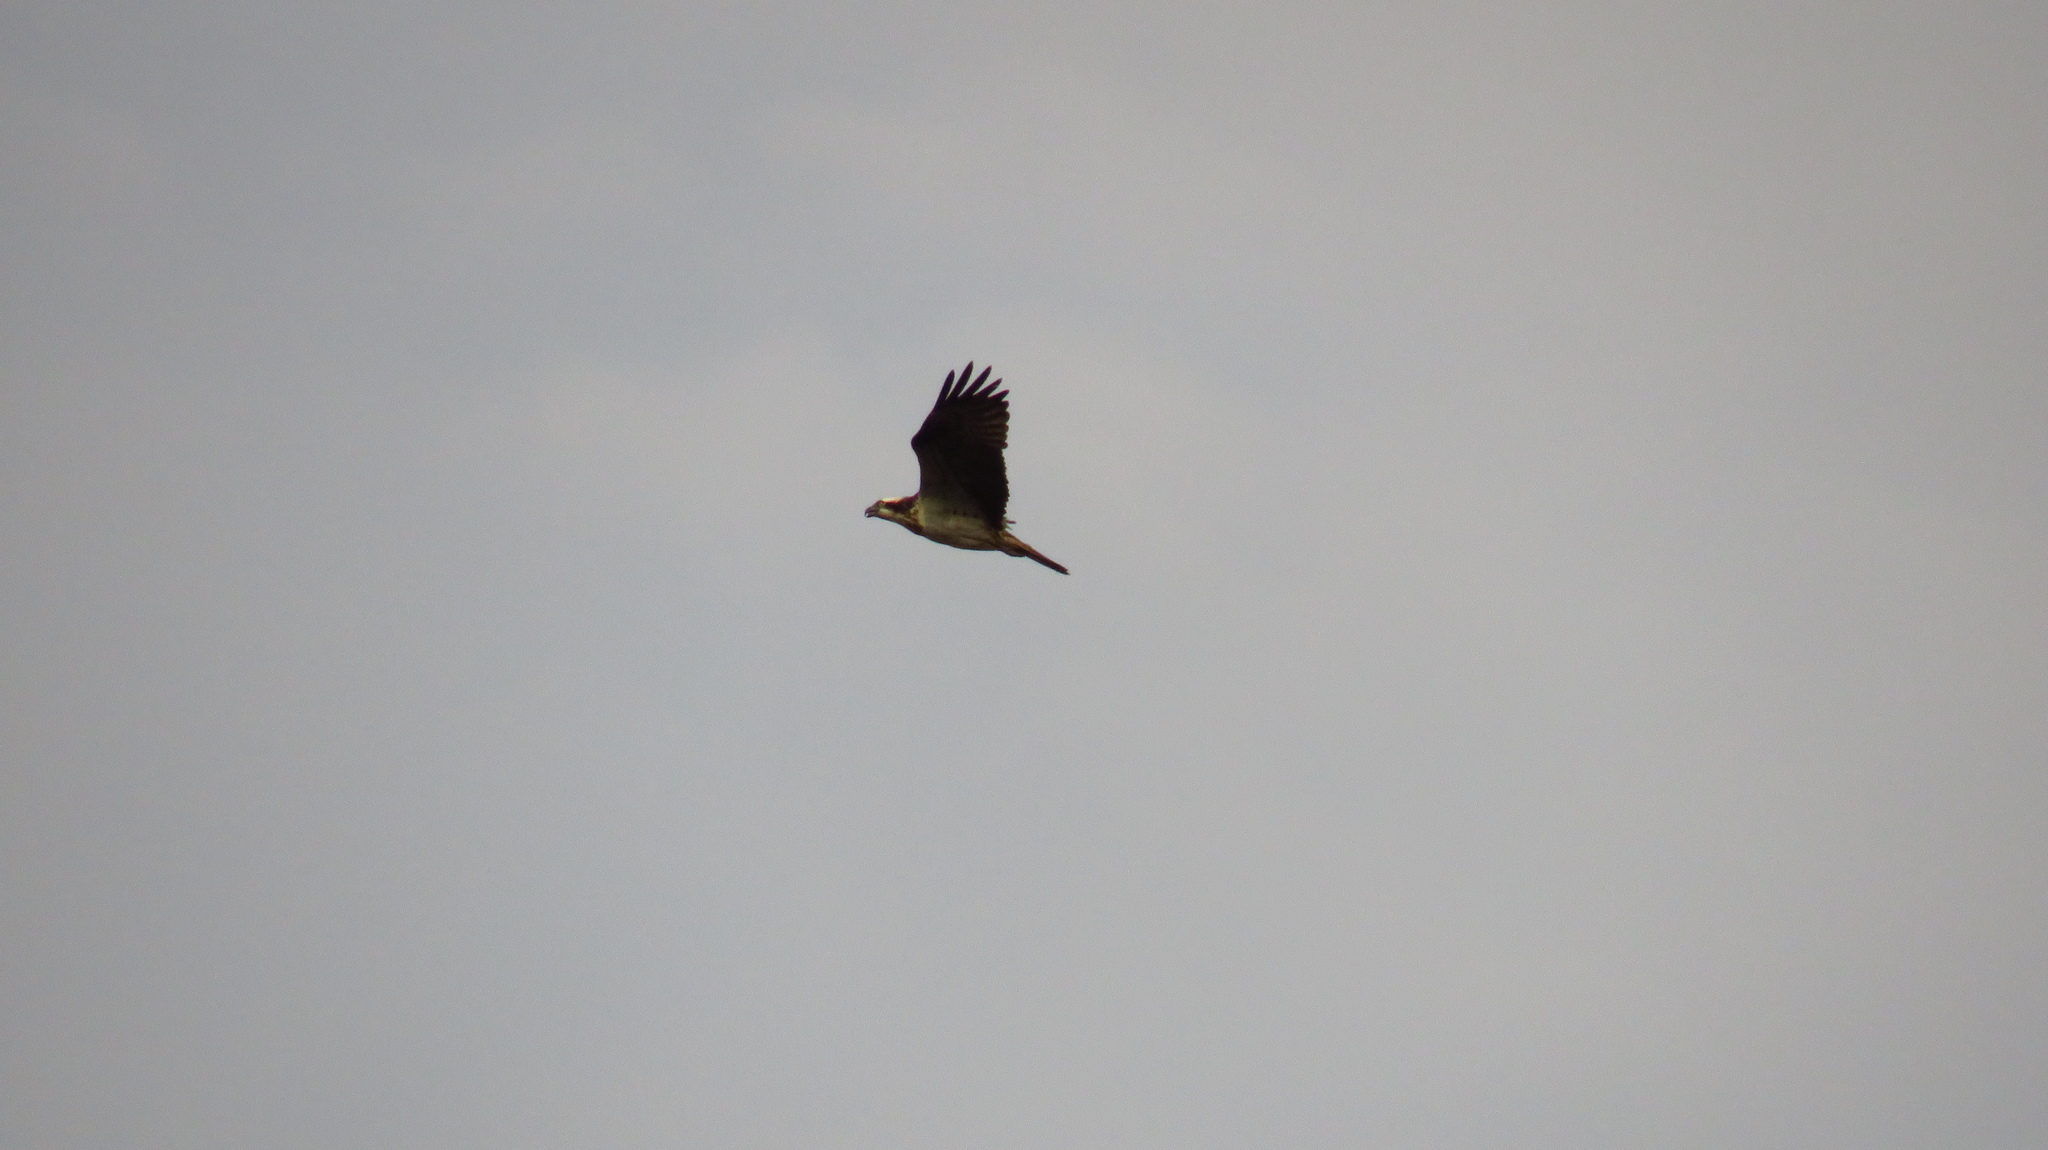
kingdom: Animalia
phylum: Chordata
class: Aves
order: Accipitriformes
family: Pandionidae
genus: Pandion
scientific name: Pandion haliaetus
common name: Osprey
